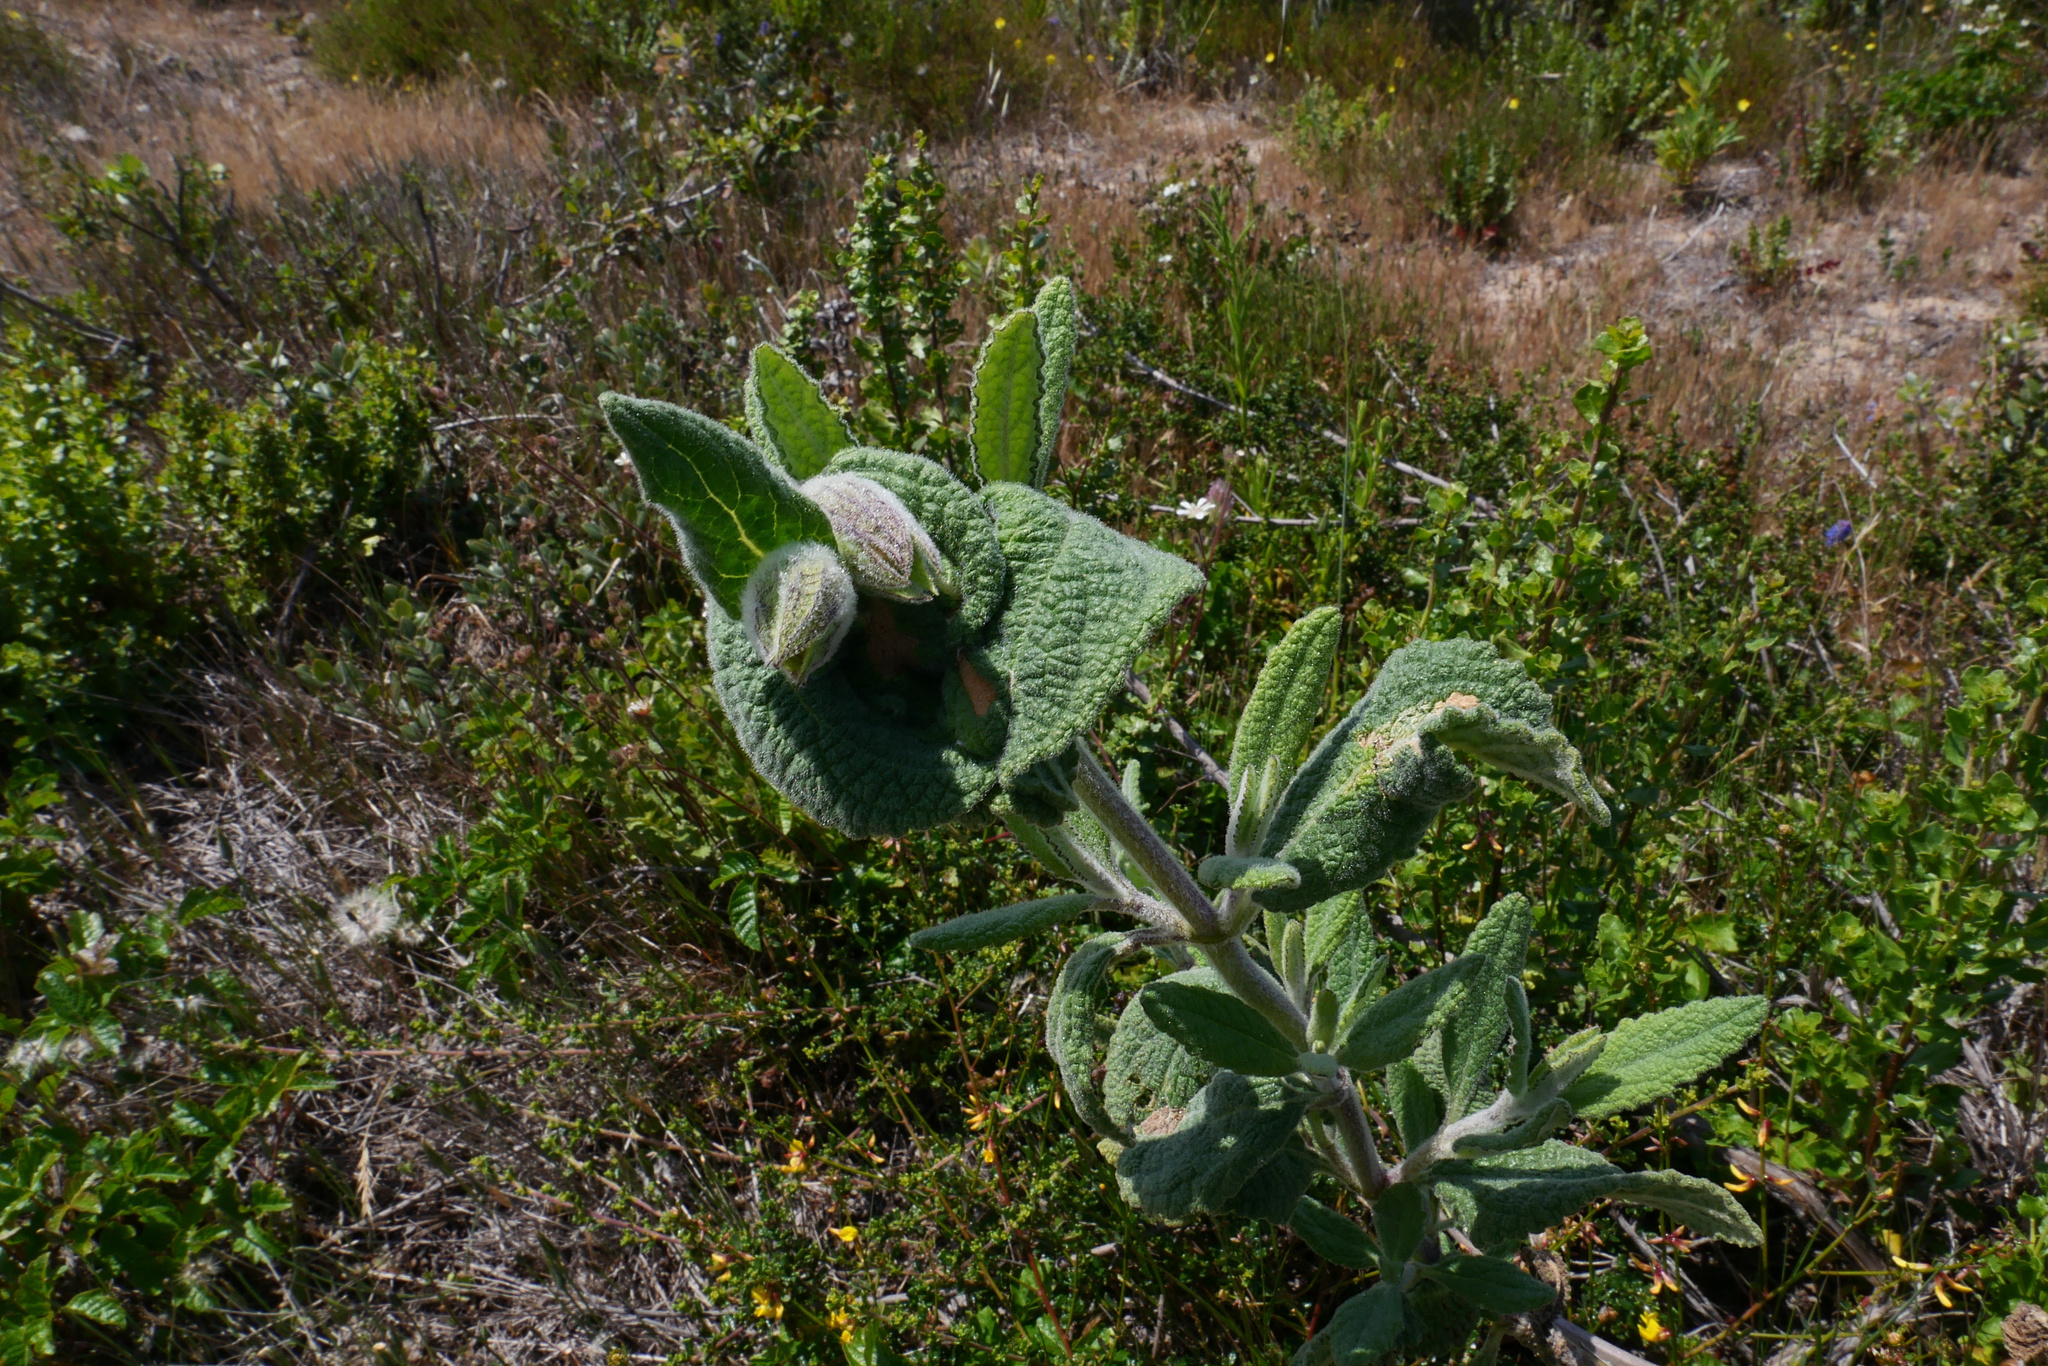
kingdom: Plantae
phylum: Tracheophyta
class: Magnoliopsida
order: Lamiales
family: Lamiaceae
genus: Lepechinia
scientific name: Lepechinia calycina
